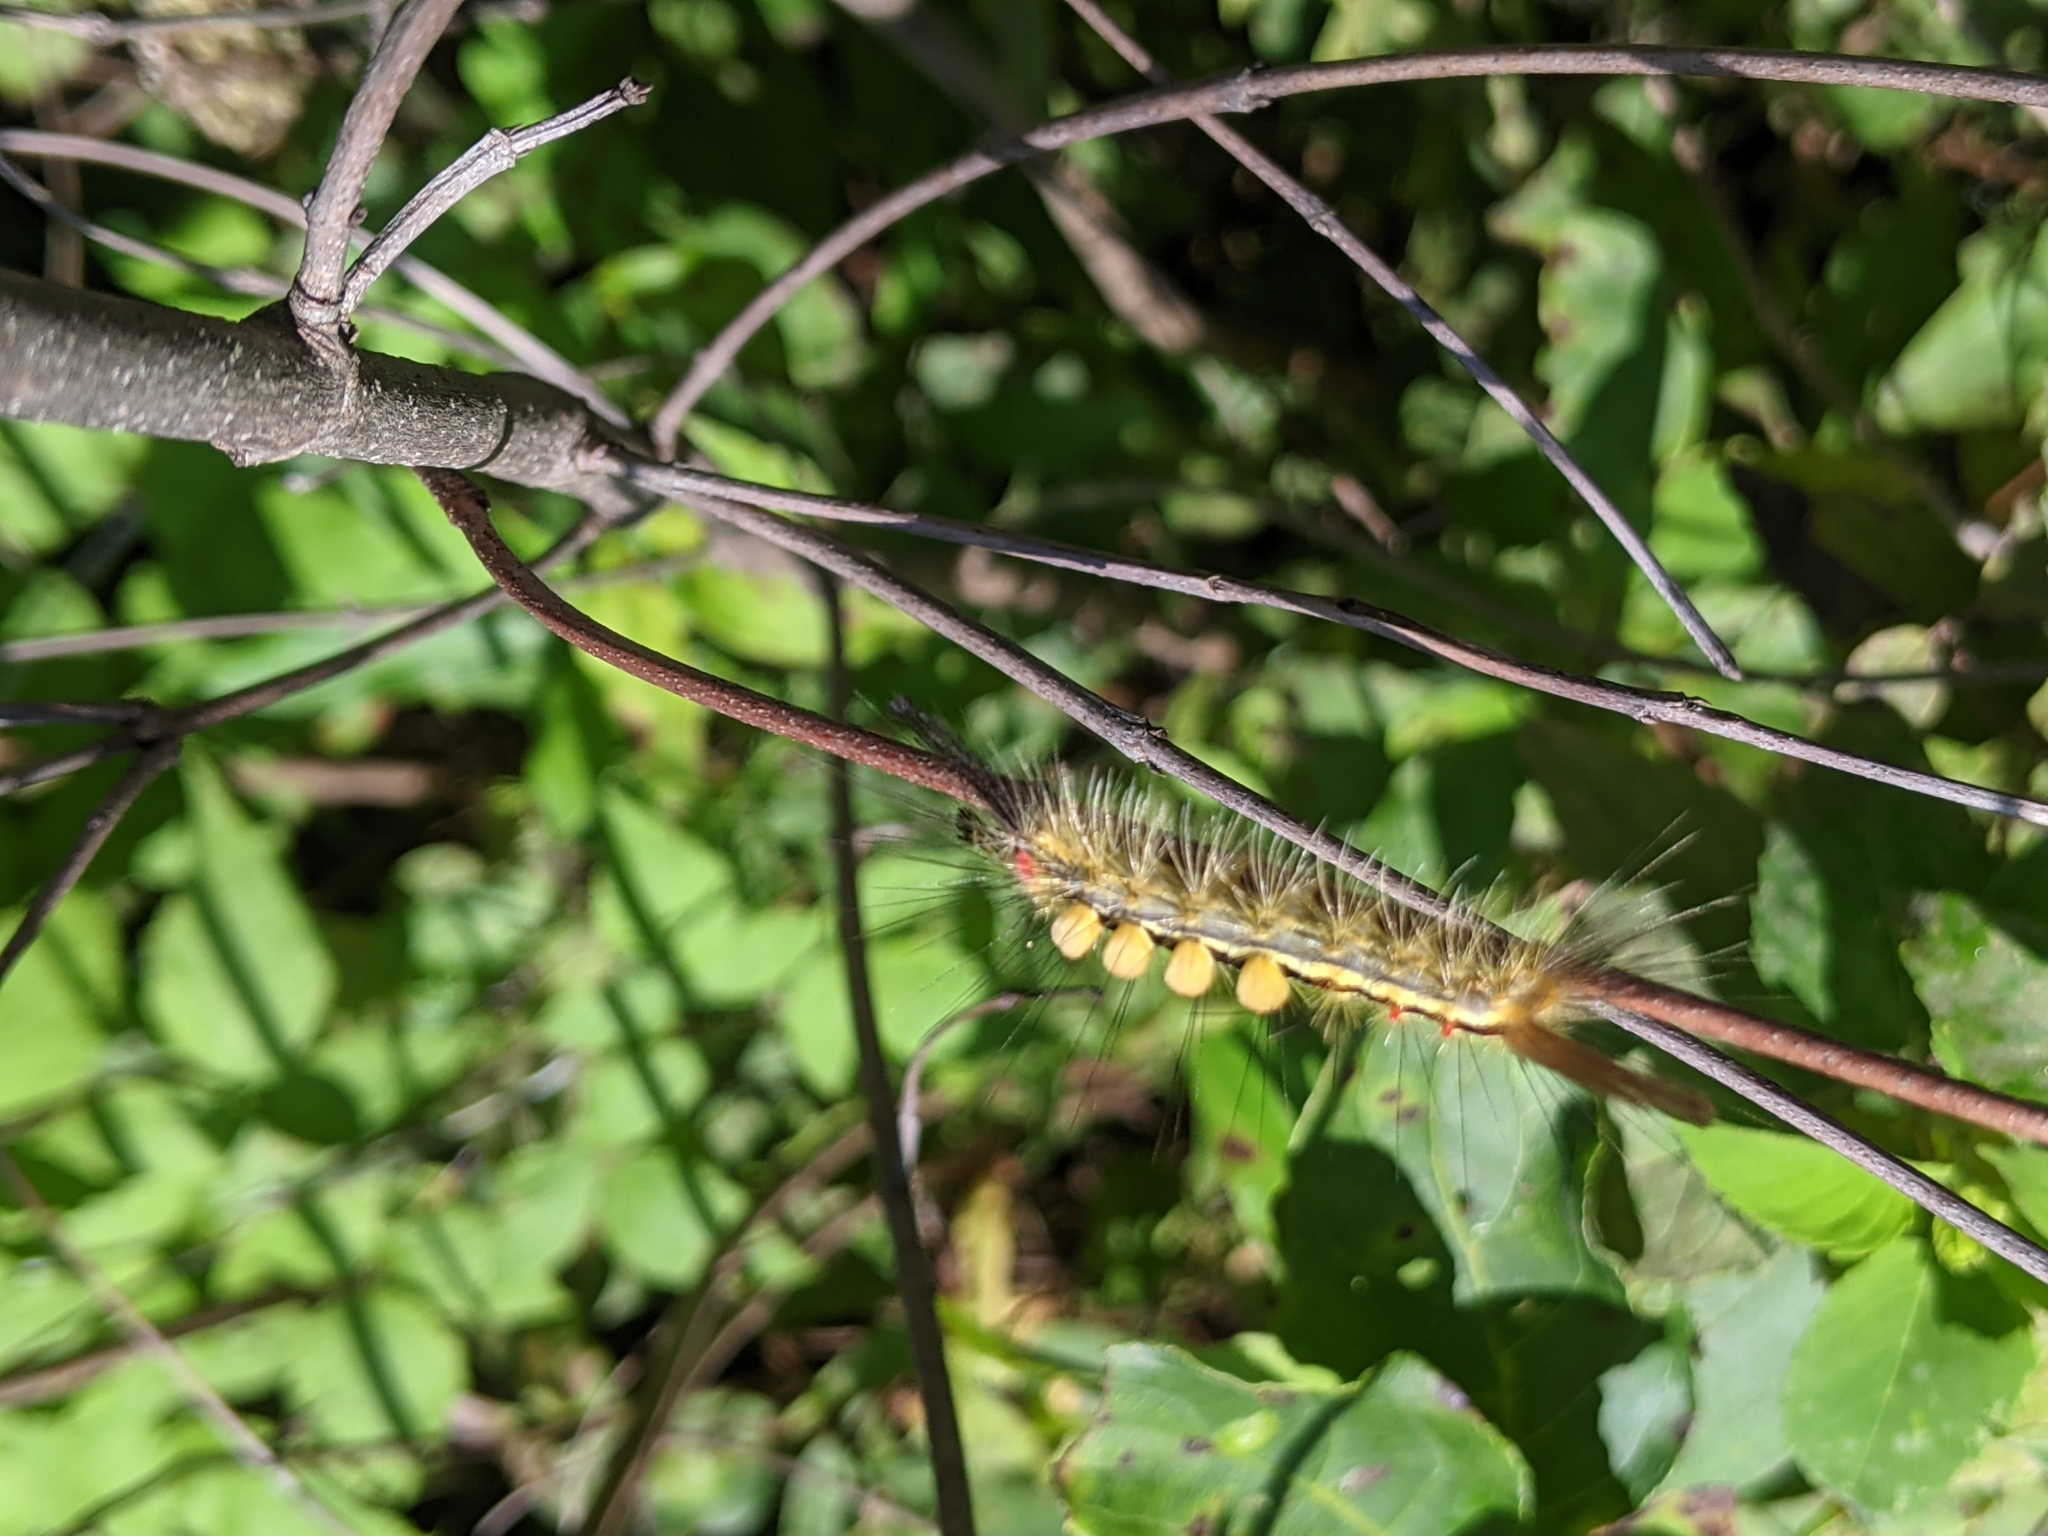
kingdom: Animalia
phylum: Arthropoda
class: Insecta
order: Lepidoptera
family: Erebidae
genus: Orgyia
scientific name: Orgyia leucostigma
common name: White-marked tussock moth
